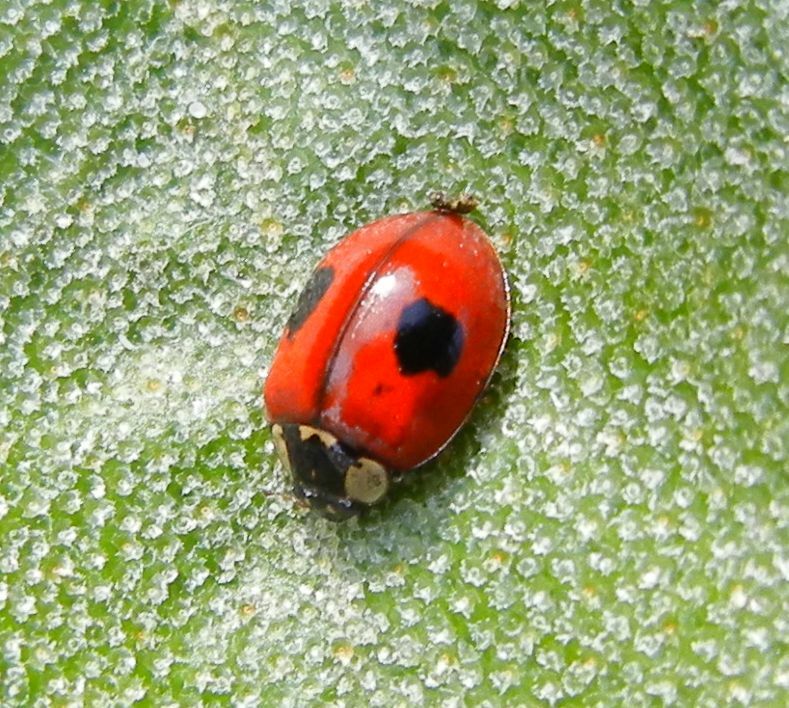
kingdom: Animalia
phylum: Arthropoda
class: Insecta
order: Coleoptera
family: Coccinellidae
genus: Adalia
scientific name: Adalia bipunctata
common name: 2-spot ladybird
